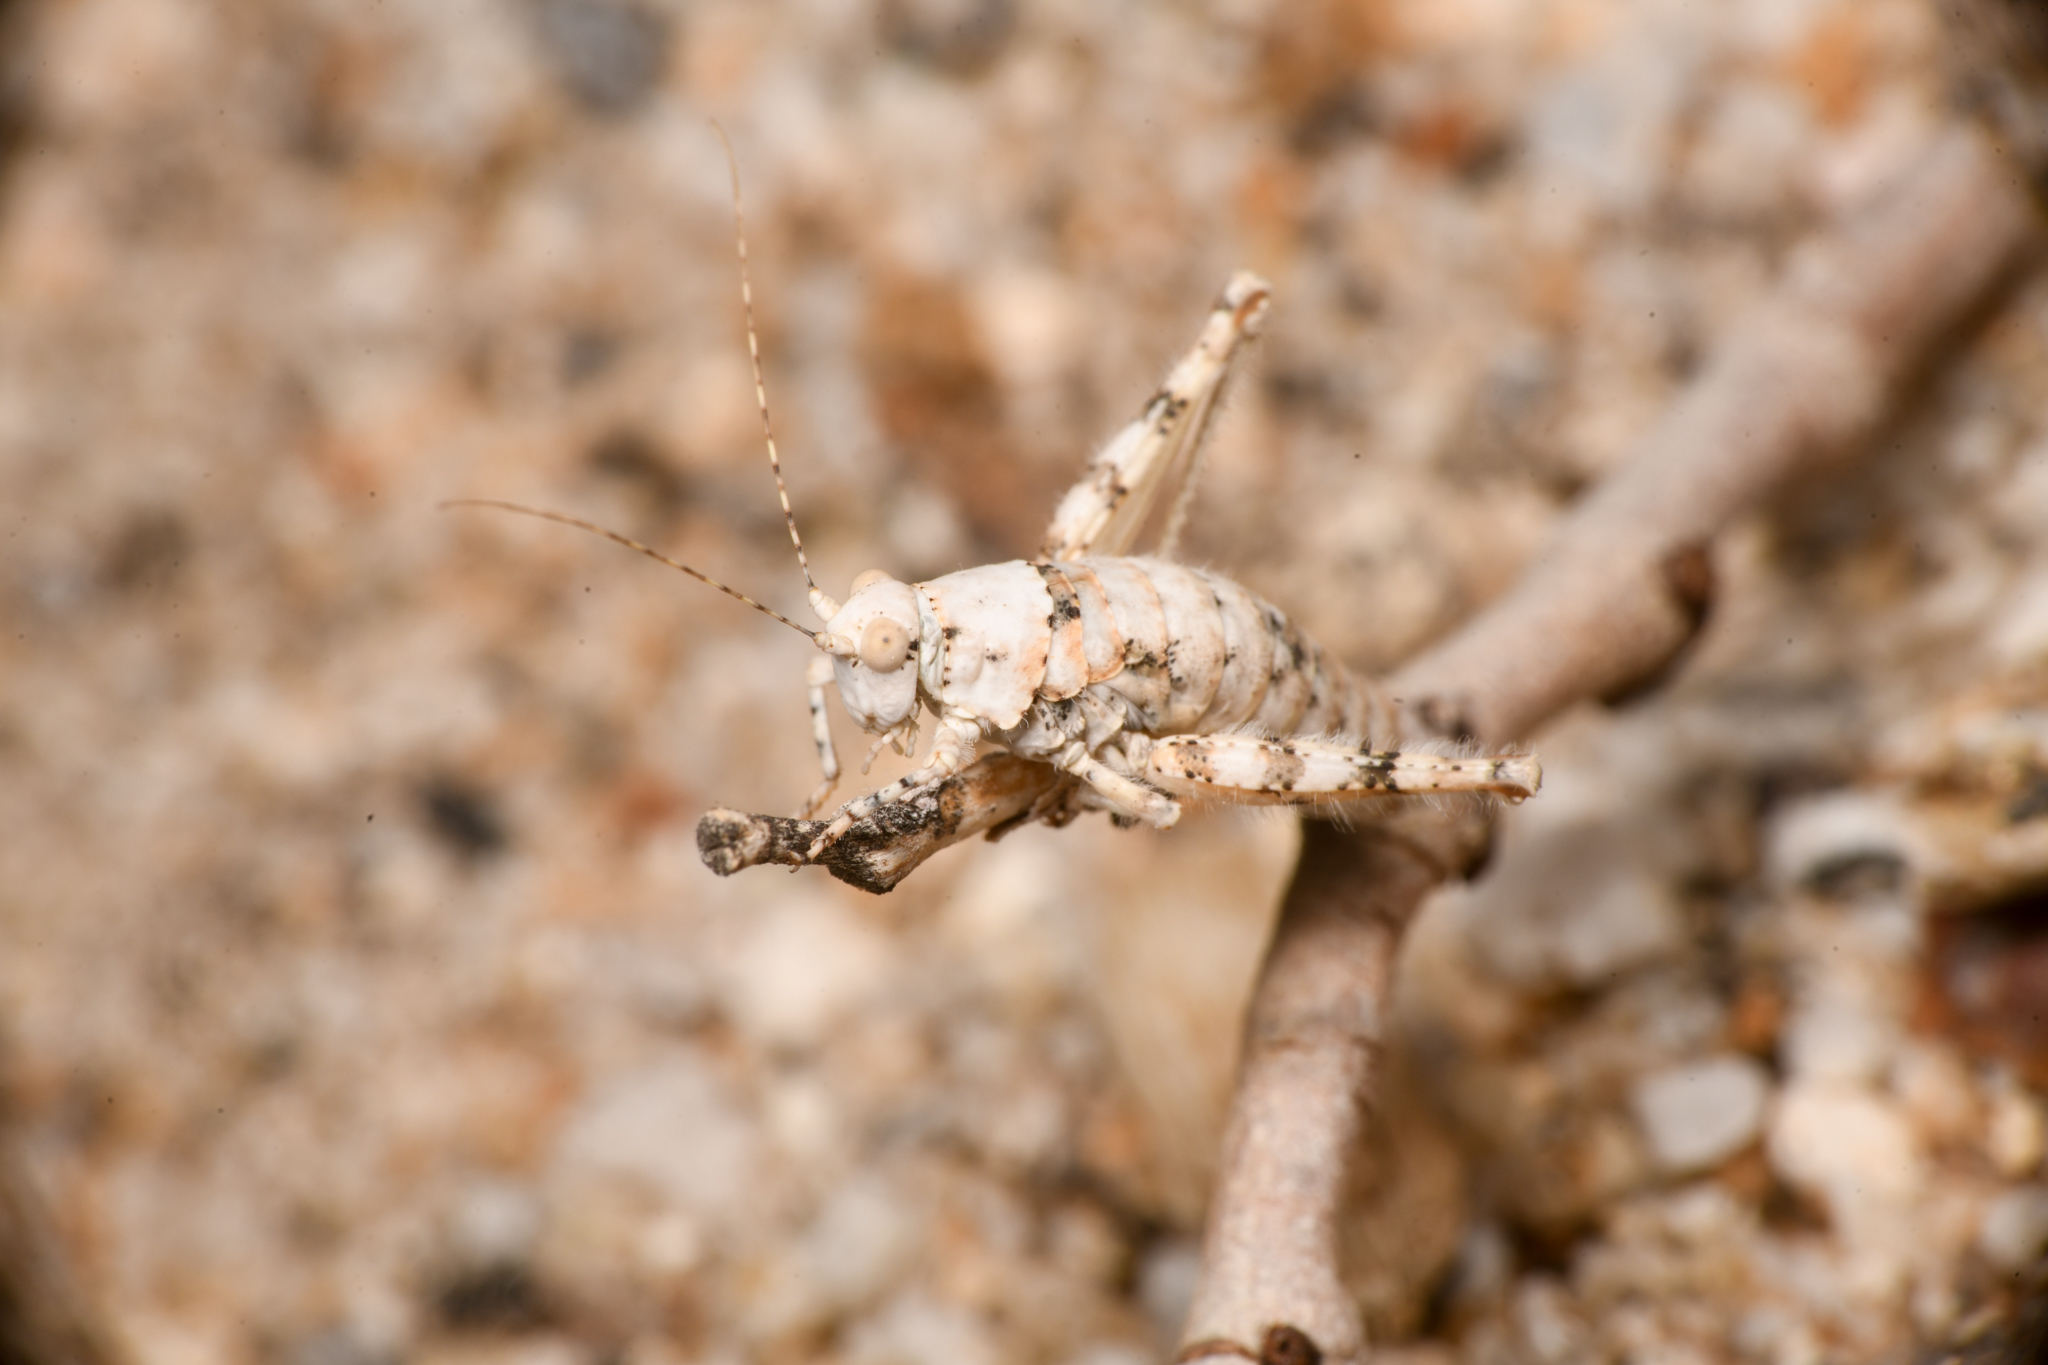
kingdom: Animalia
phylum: Arthropoda
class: Insecta
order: Orthoptera
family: Tanaoceridae
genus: Tanaocerus
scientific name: Tanaocerus koebelei
